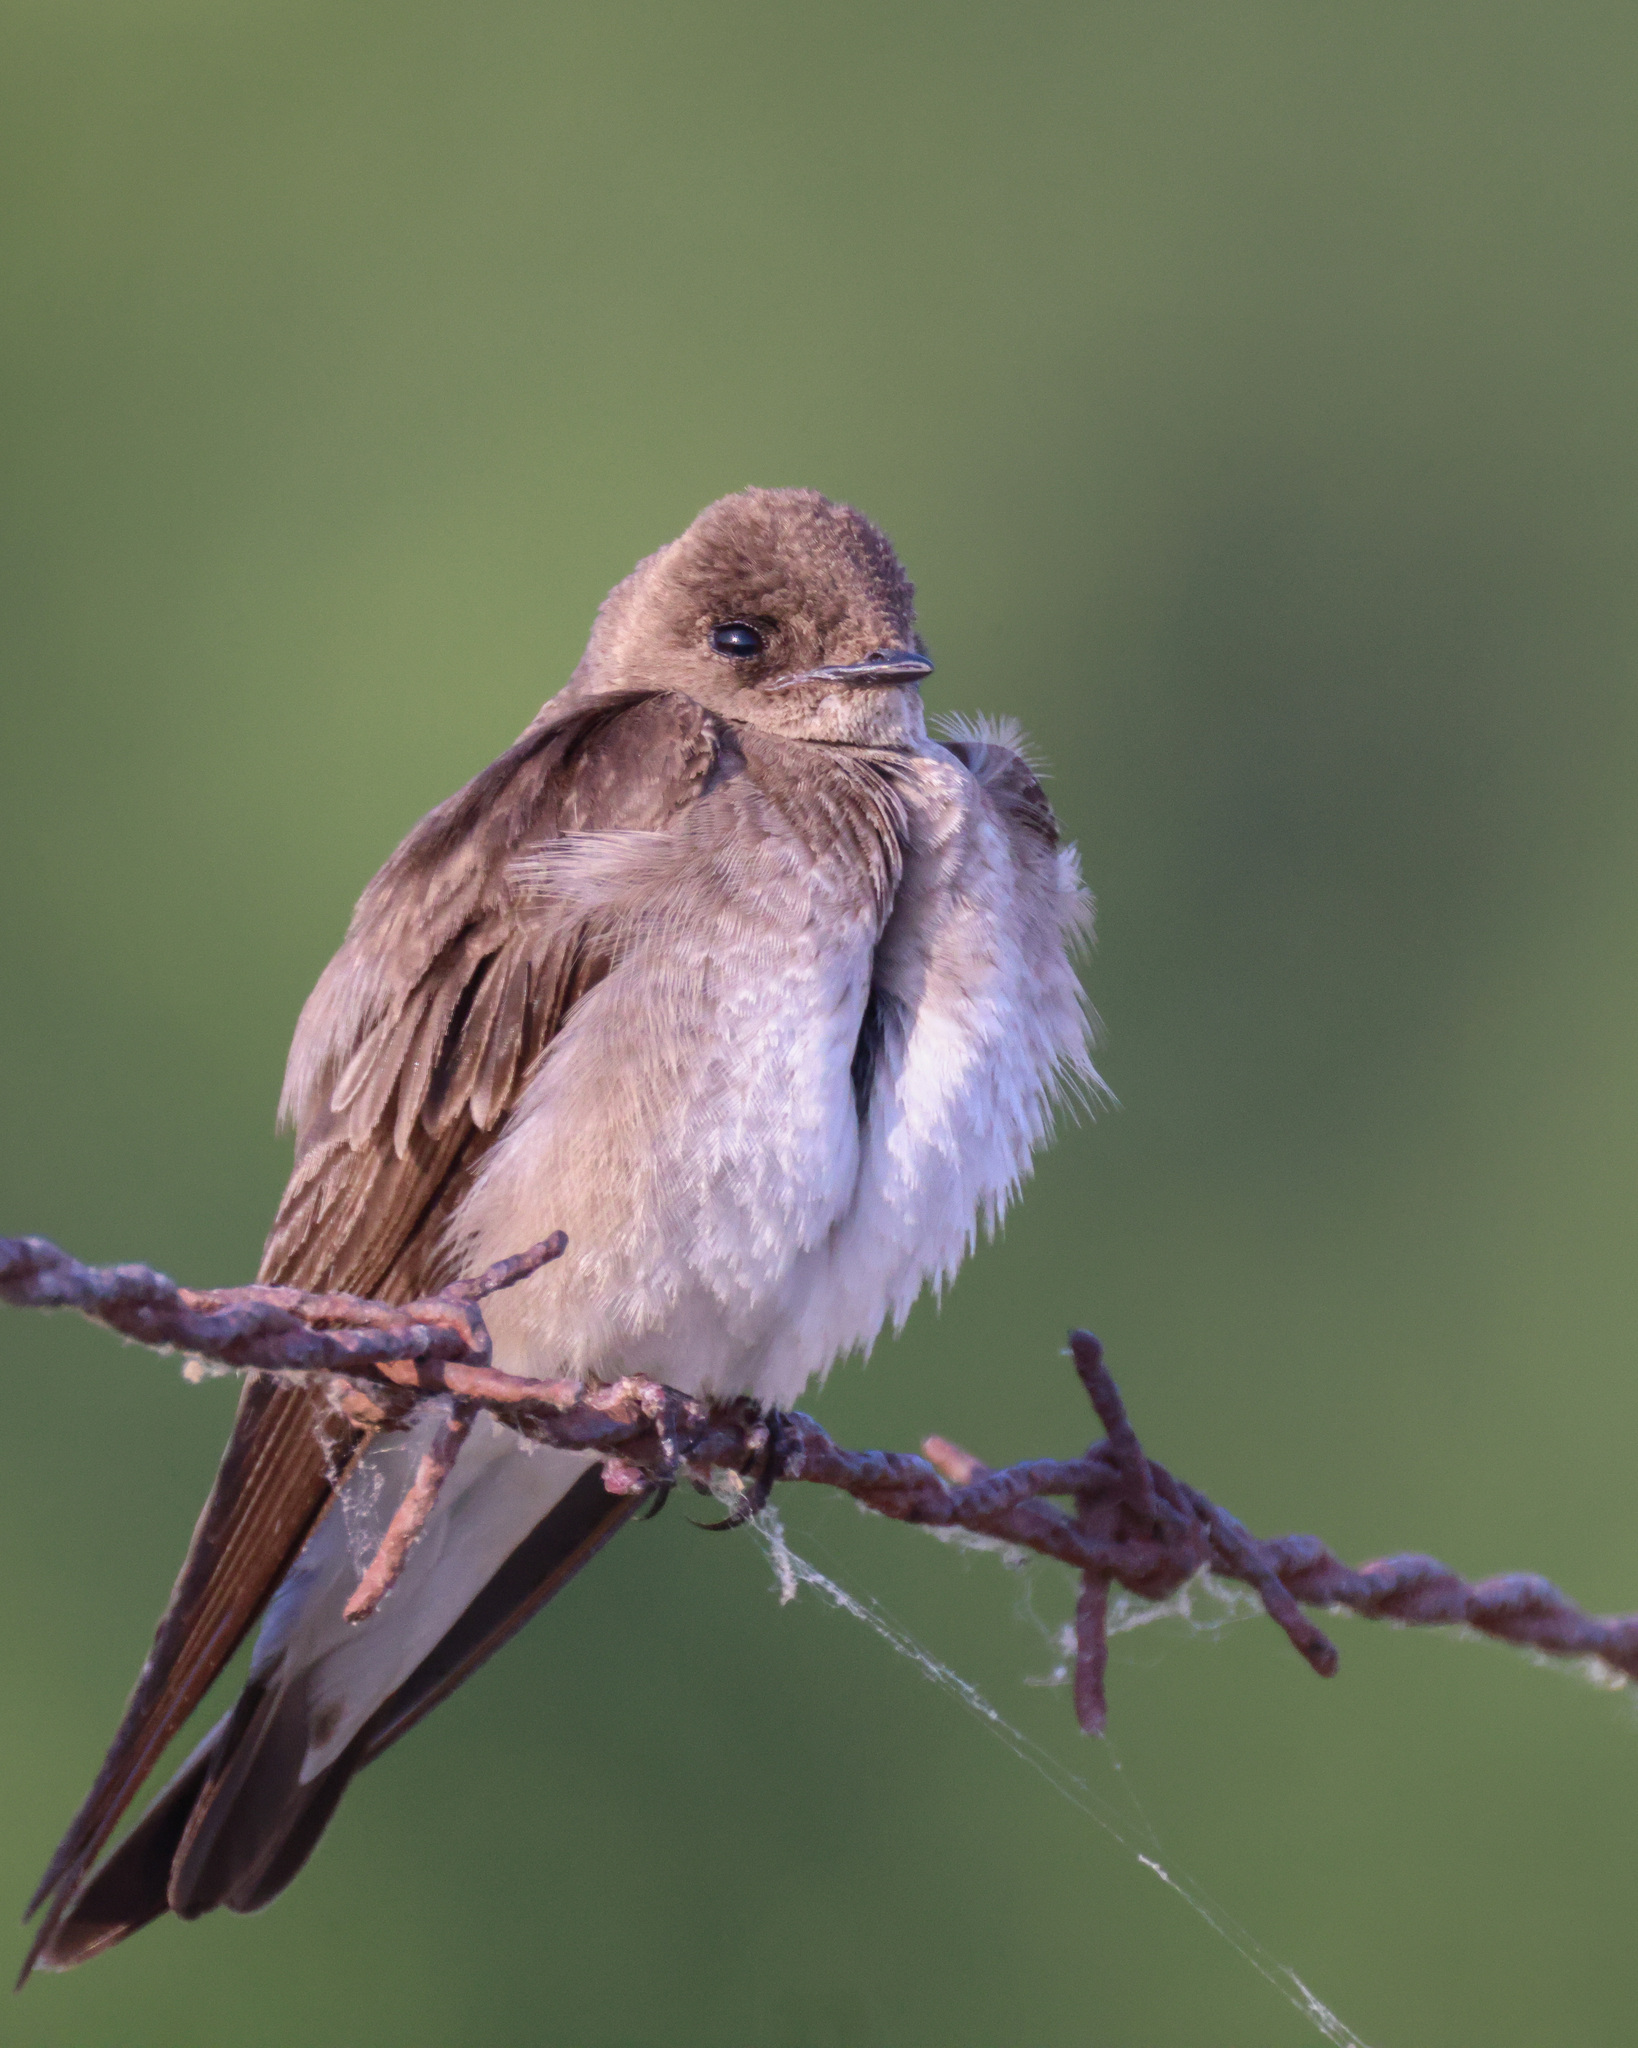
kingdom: Animalia
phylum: Chordata
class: Aves
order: Passeriformes
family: Hirundinidae
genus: Stelgidopteryx
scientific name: Stelgidopteryx serripennis
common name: Northern rough-winged swallow
